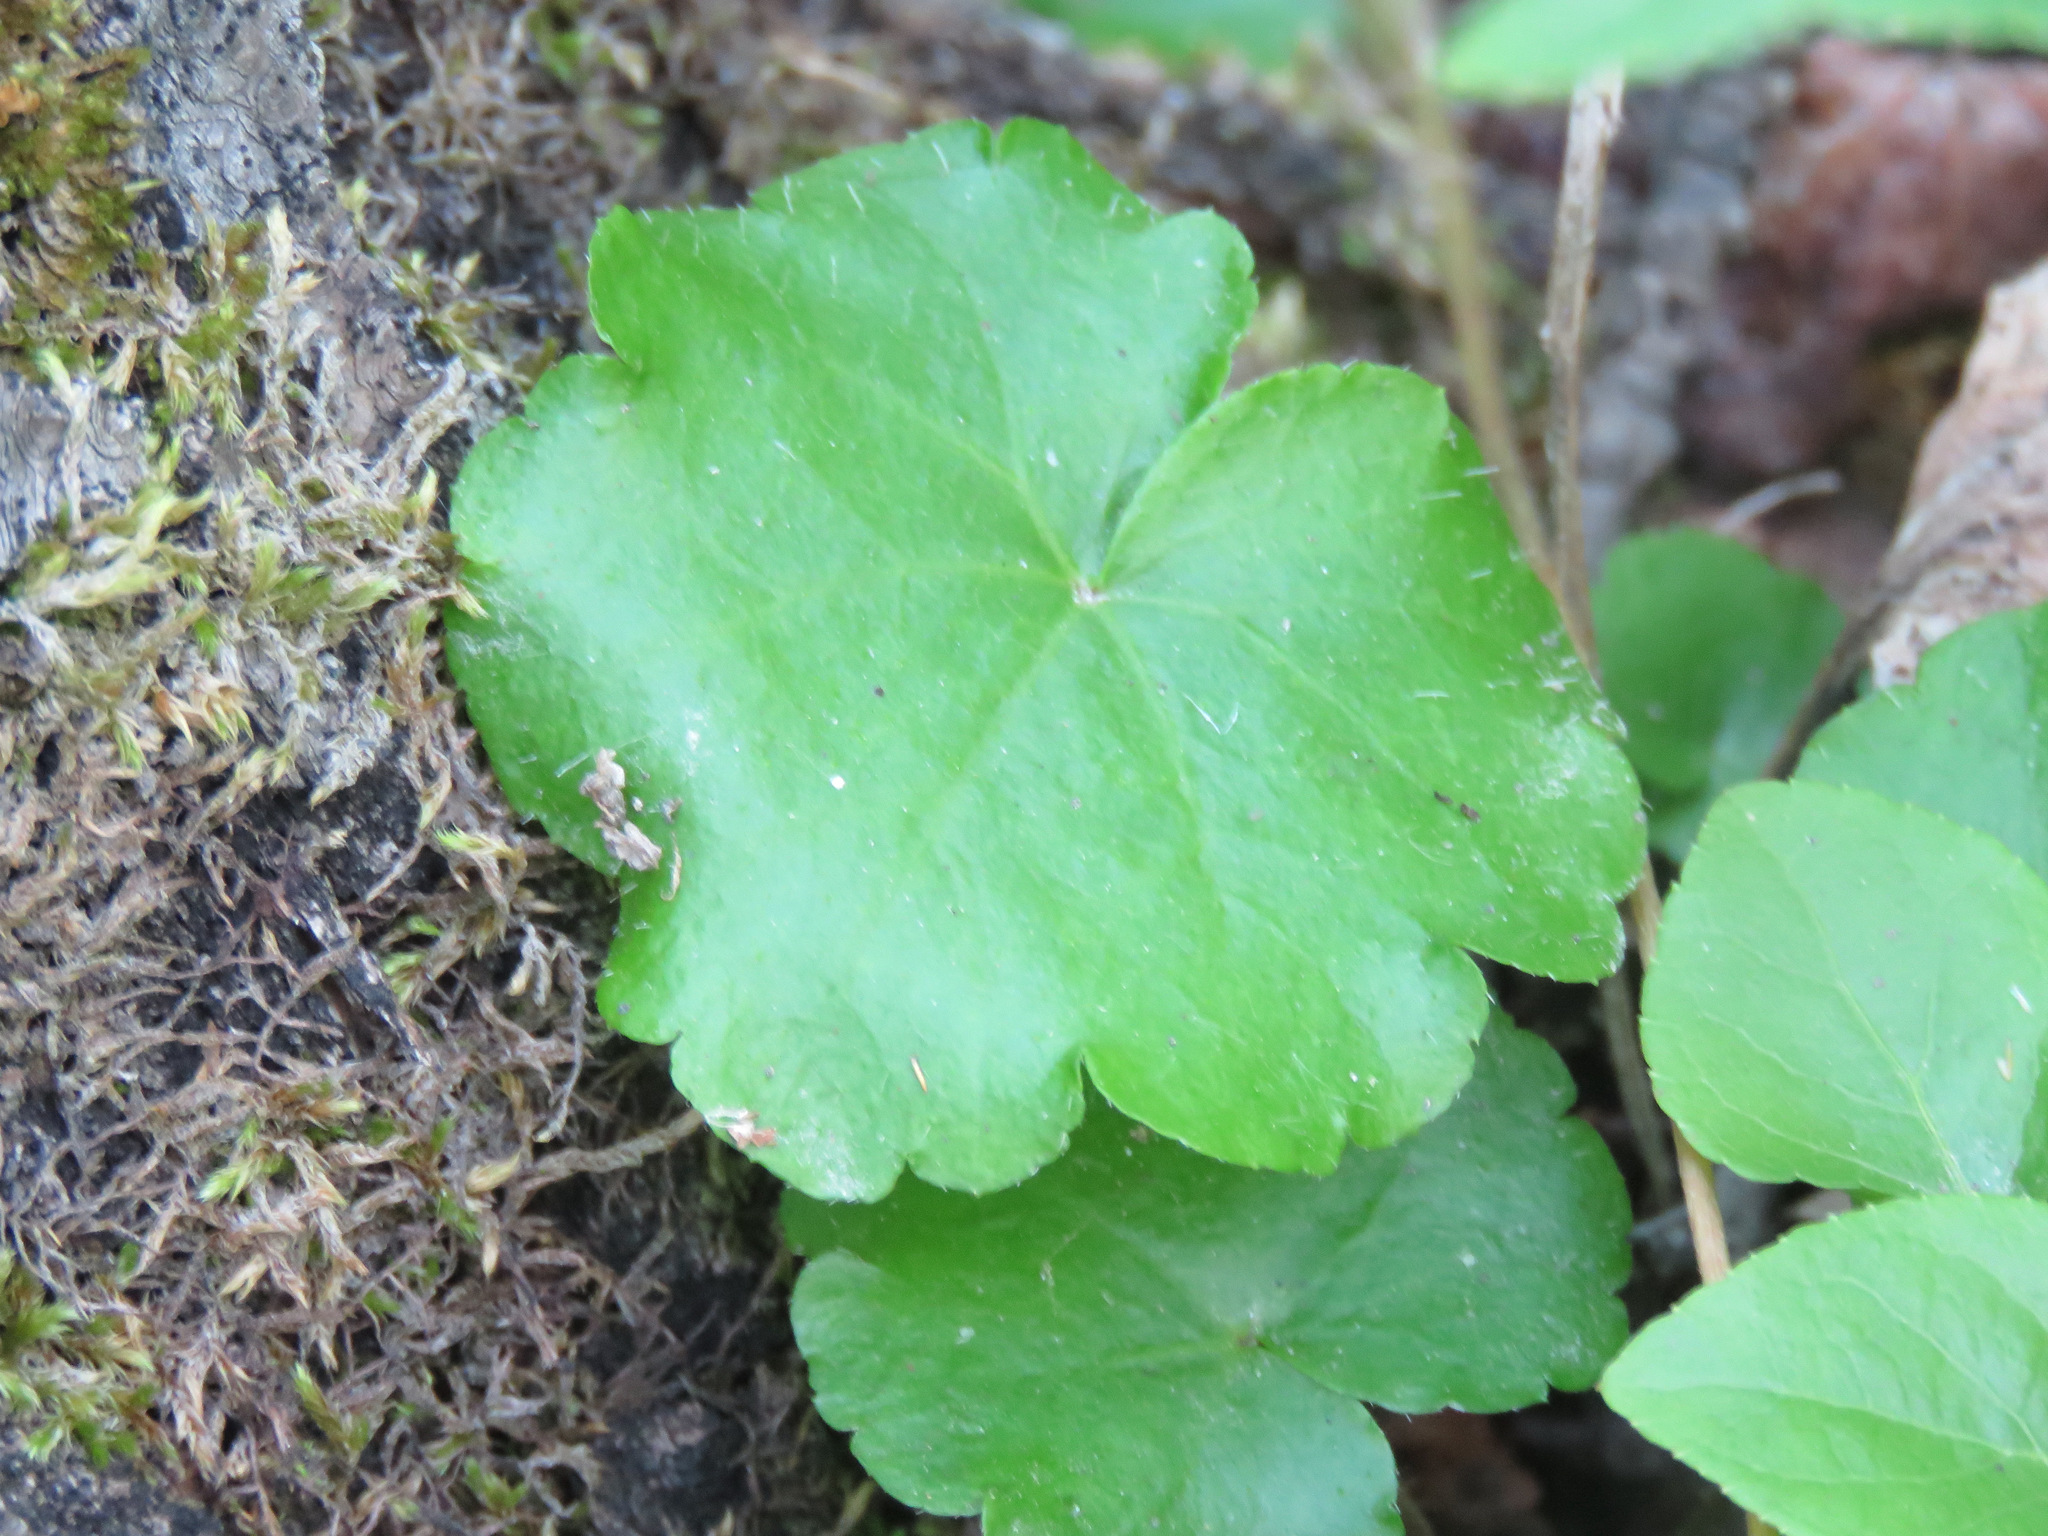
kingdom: Plantae
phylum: Tracheophyta
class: Magnoliopsida
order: Saxifragales
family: Saxifragaceae
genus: Mitella
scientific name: Mitella nuda
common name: Bare-stemmed bishop's-cap
